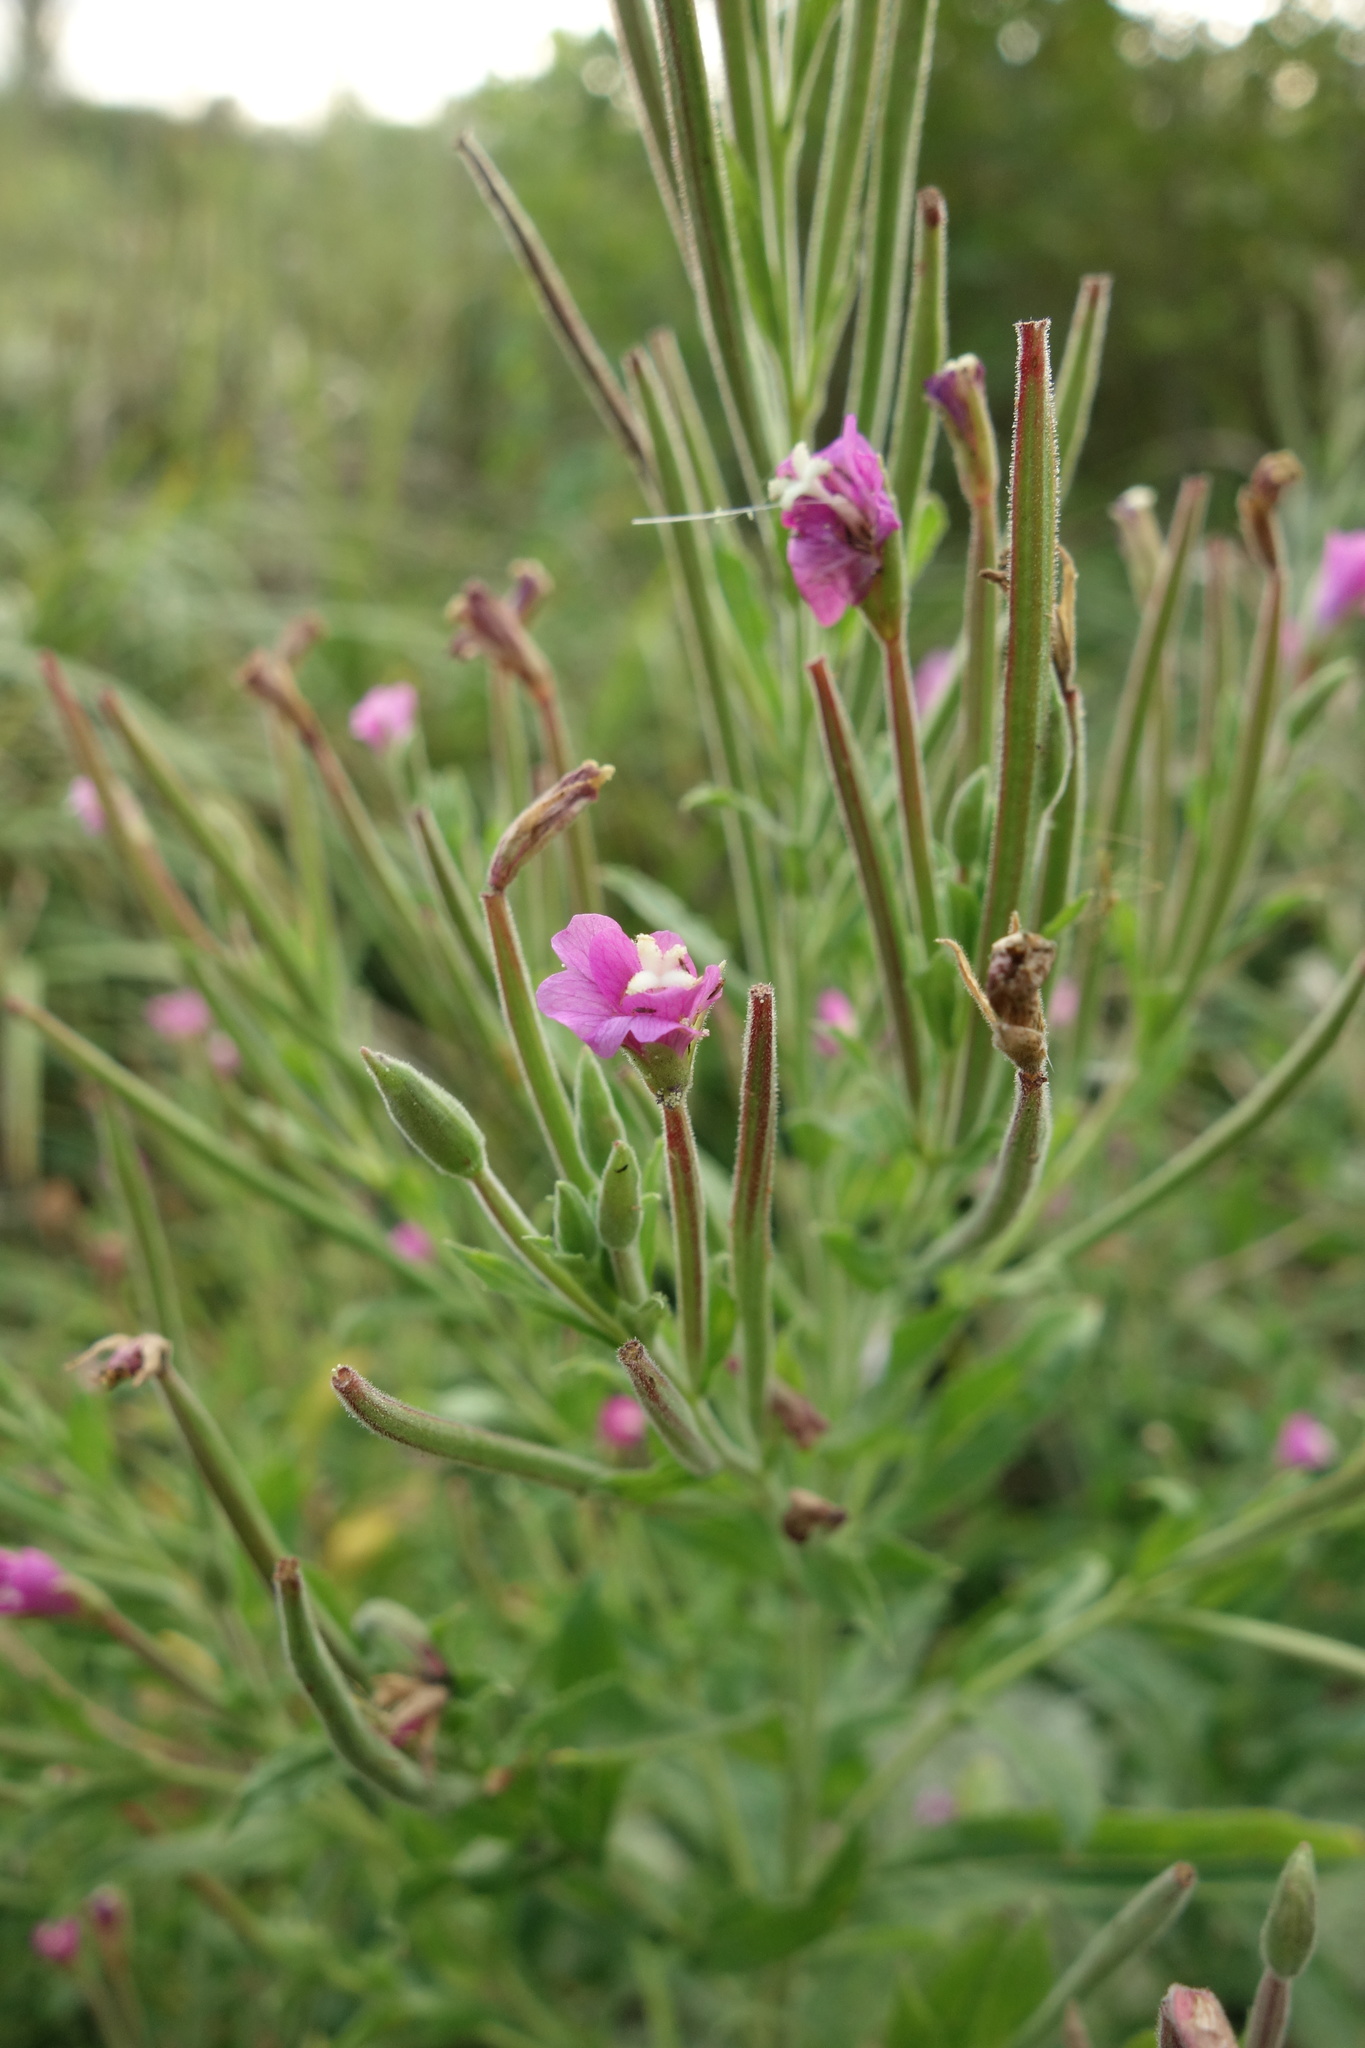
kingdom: Plantae
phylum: Tracheophyta
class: Magnoliopsida
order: Myrtales
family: Onagraceae
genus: Epilobium
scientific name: Epilobium hirsutum
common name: Great willowherb
